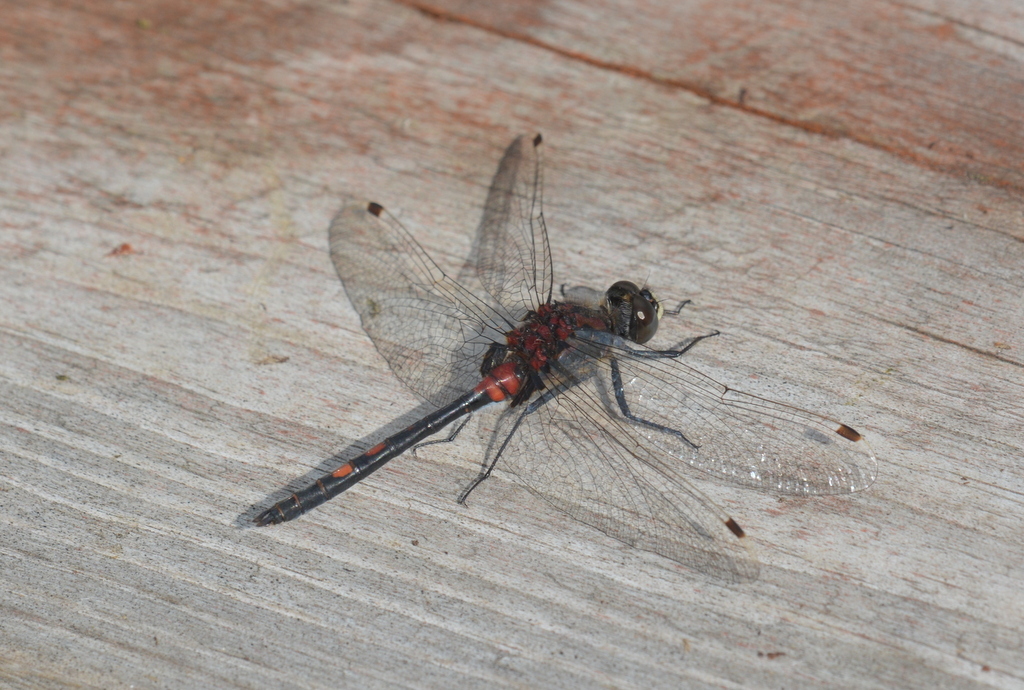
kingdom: Animalia
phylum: Arthropoda
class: Insecta
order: Odonata
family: Libellulidae
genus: Leucorrhinia
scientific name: Leucorrhinia dubia
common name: White-faced darter
